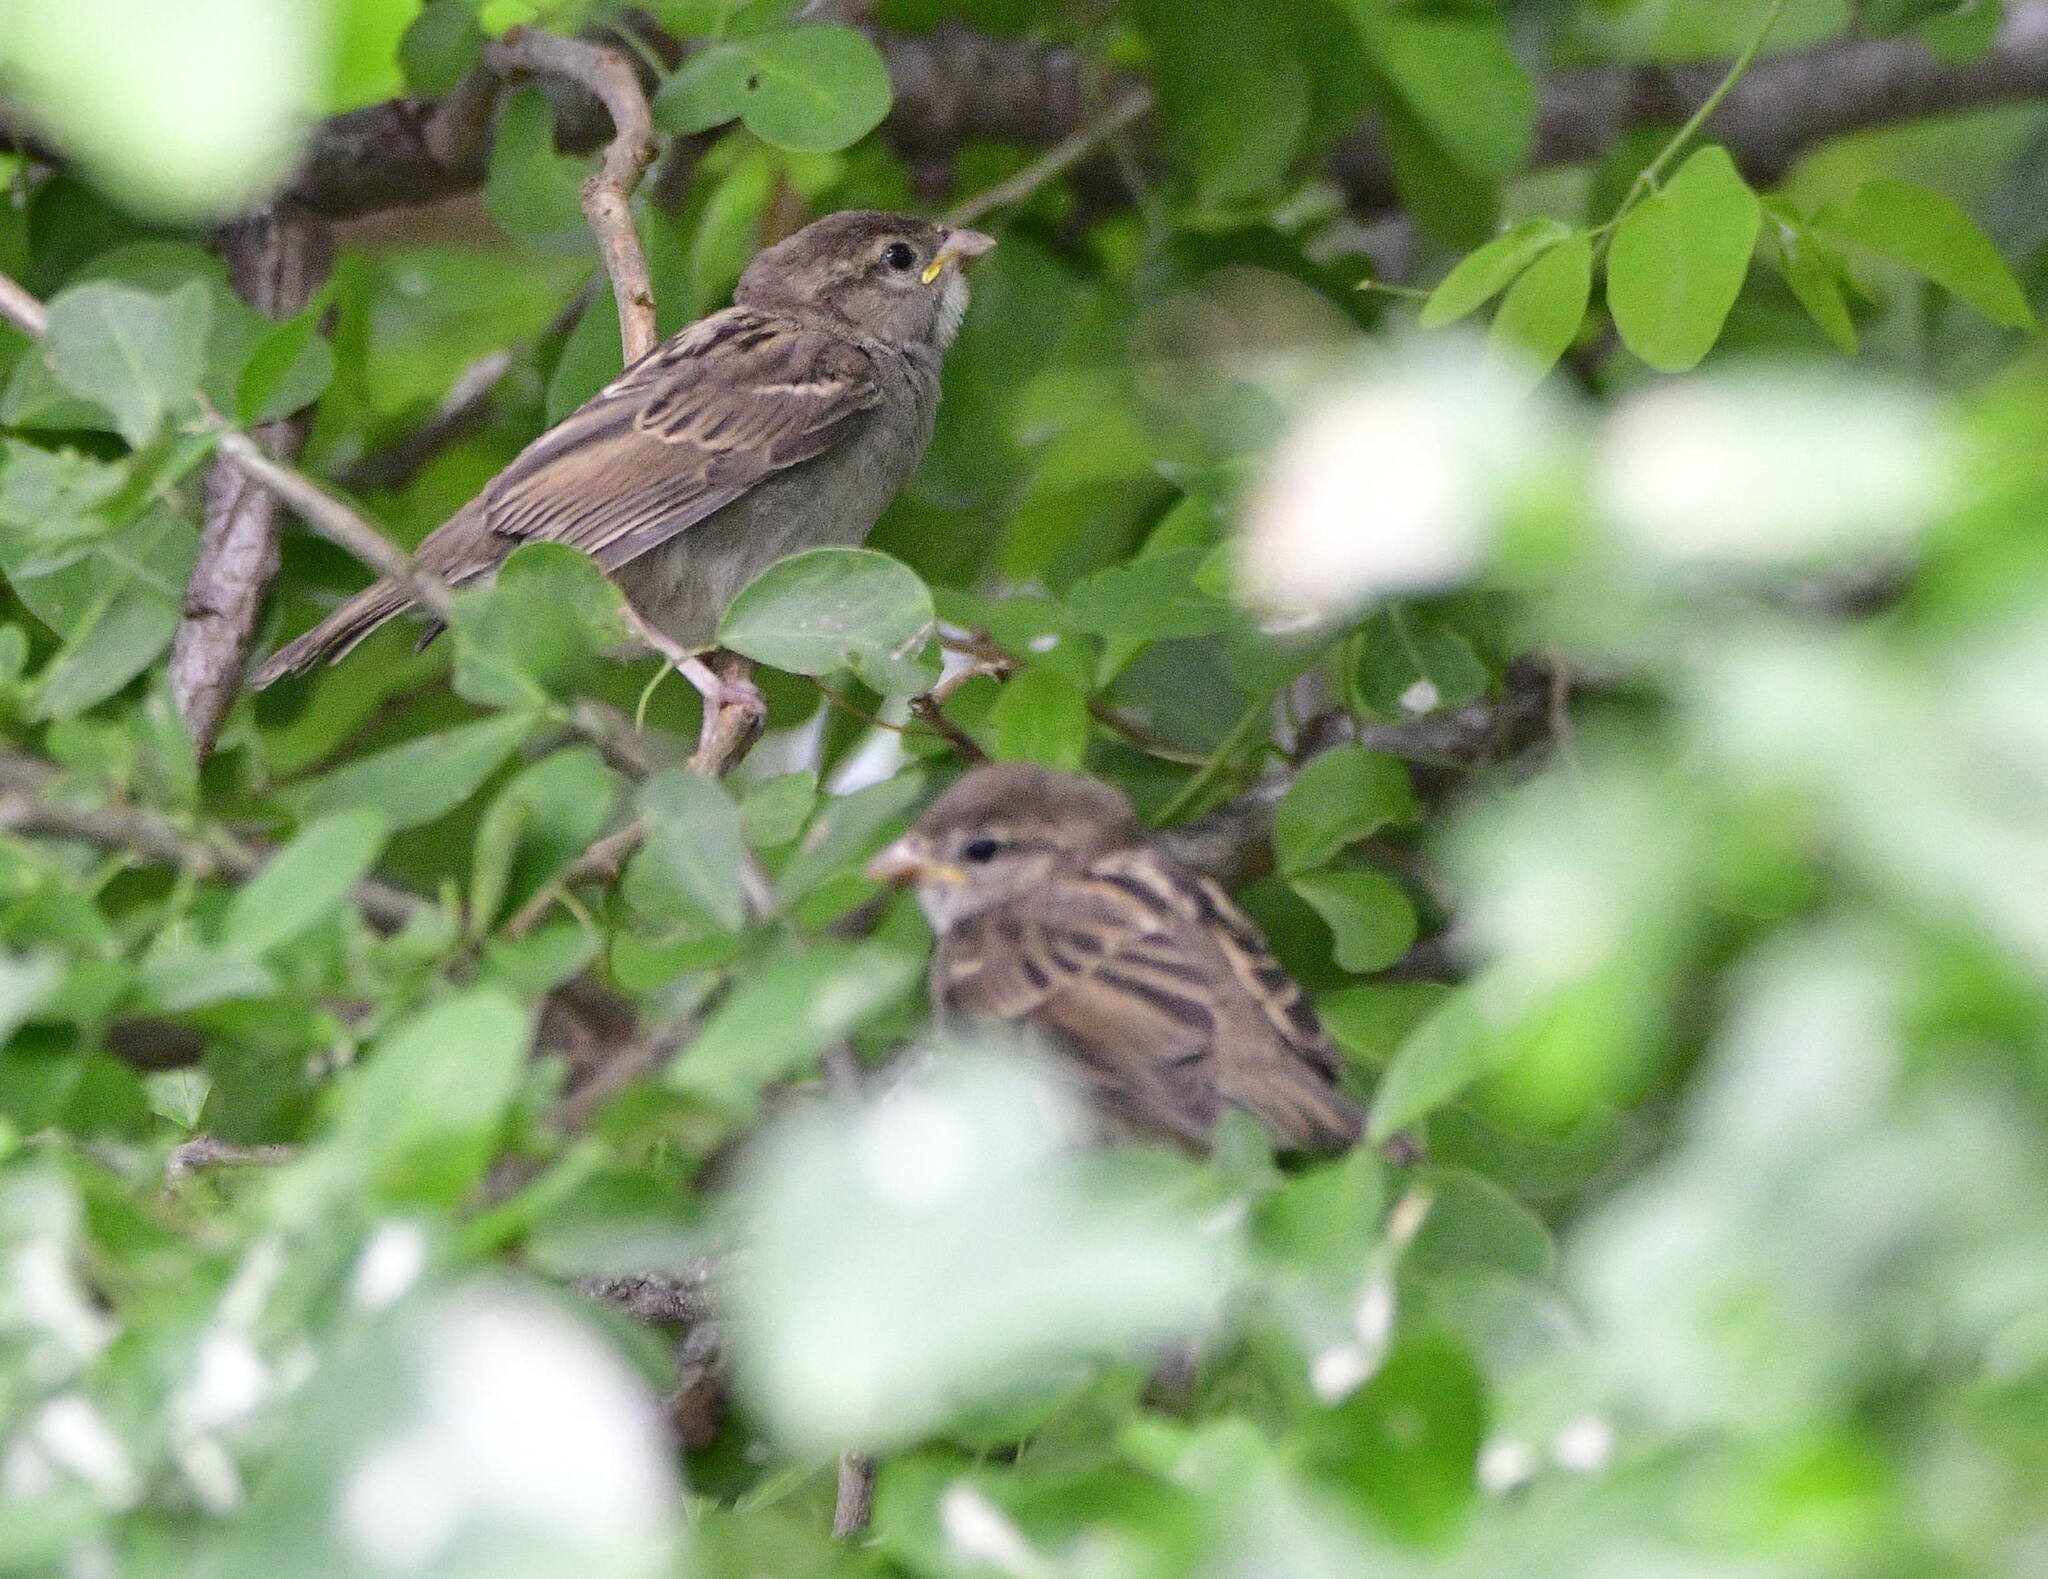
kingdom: Animalia
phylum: Chordata
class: Aves
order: Passeriformes
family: Passeridae
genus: Passer
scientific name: Passer domesticus
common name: House sparrow
